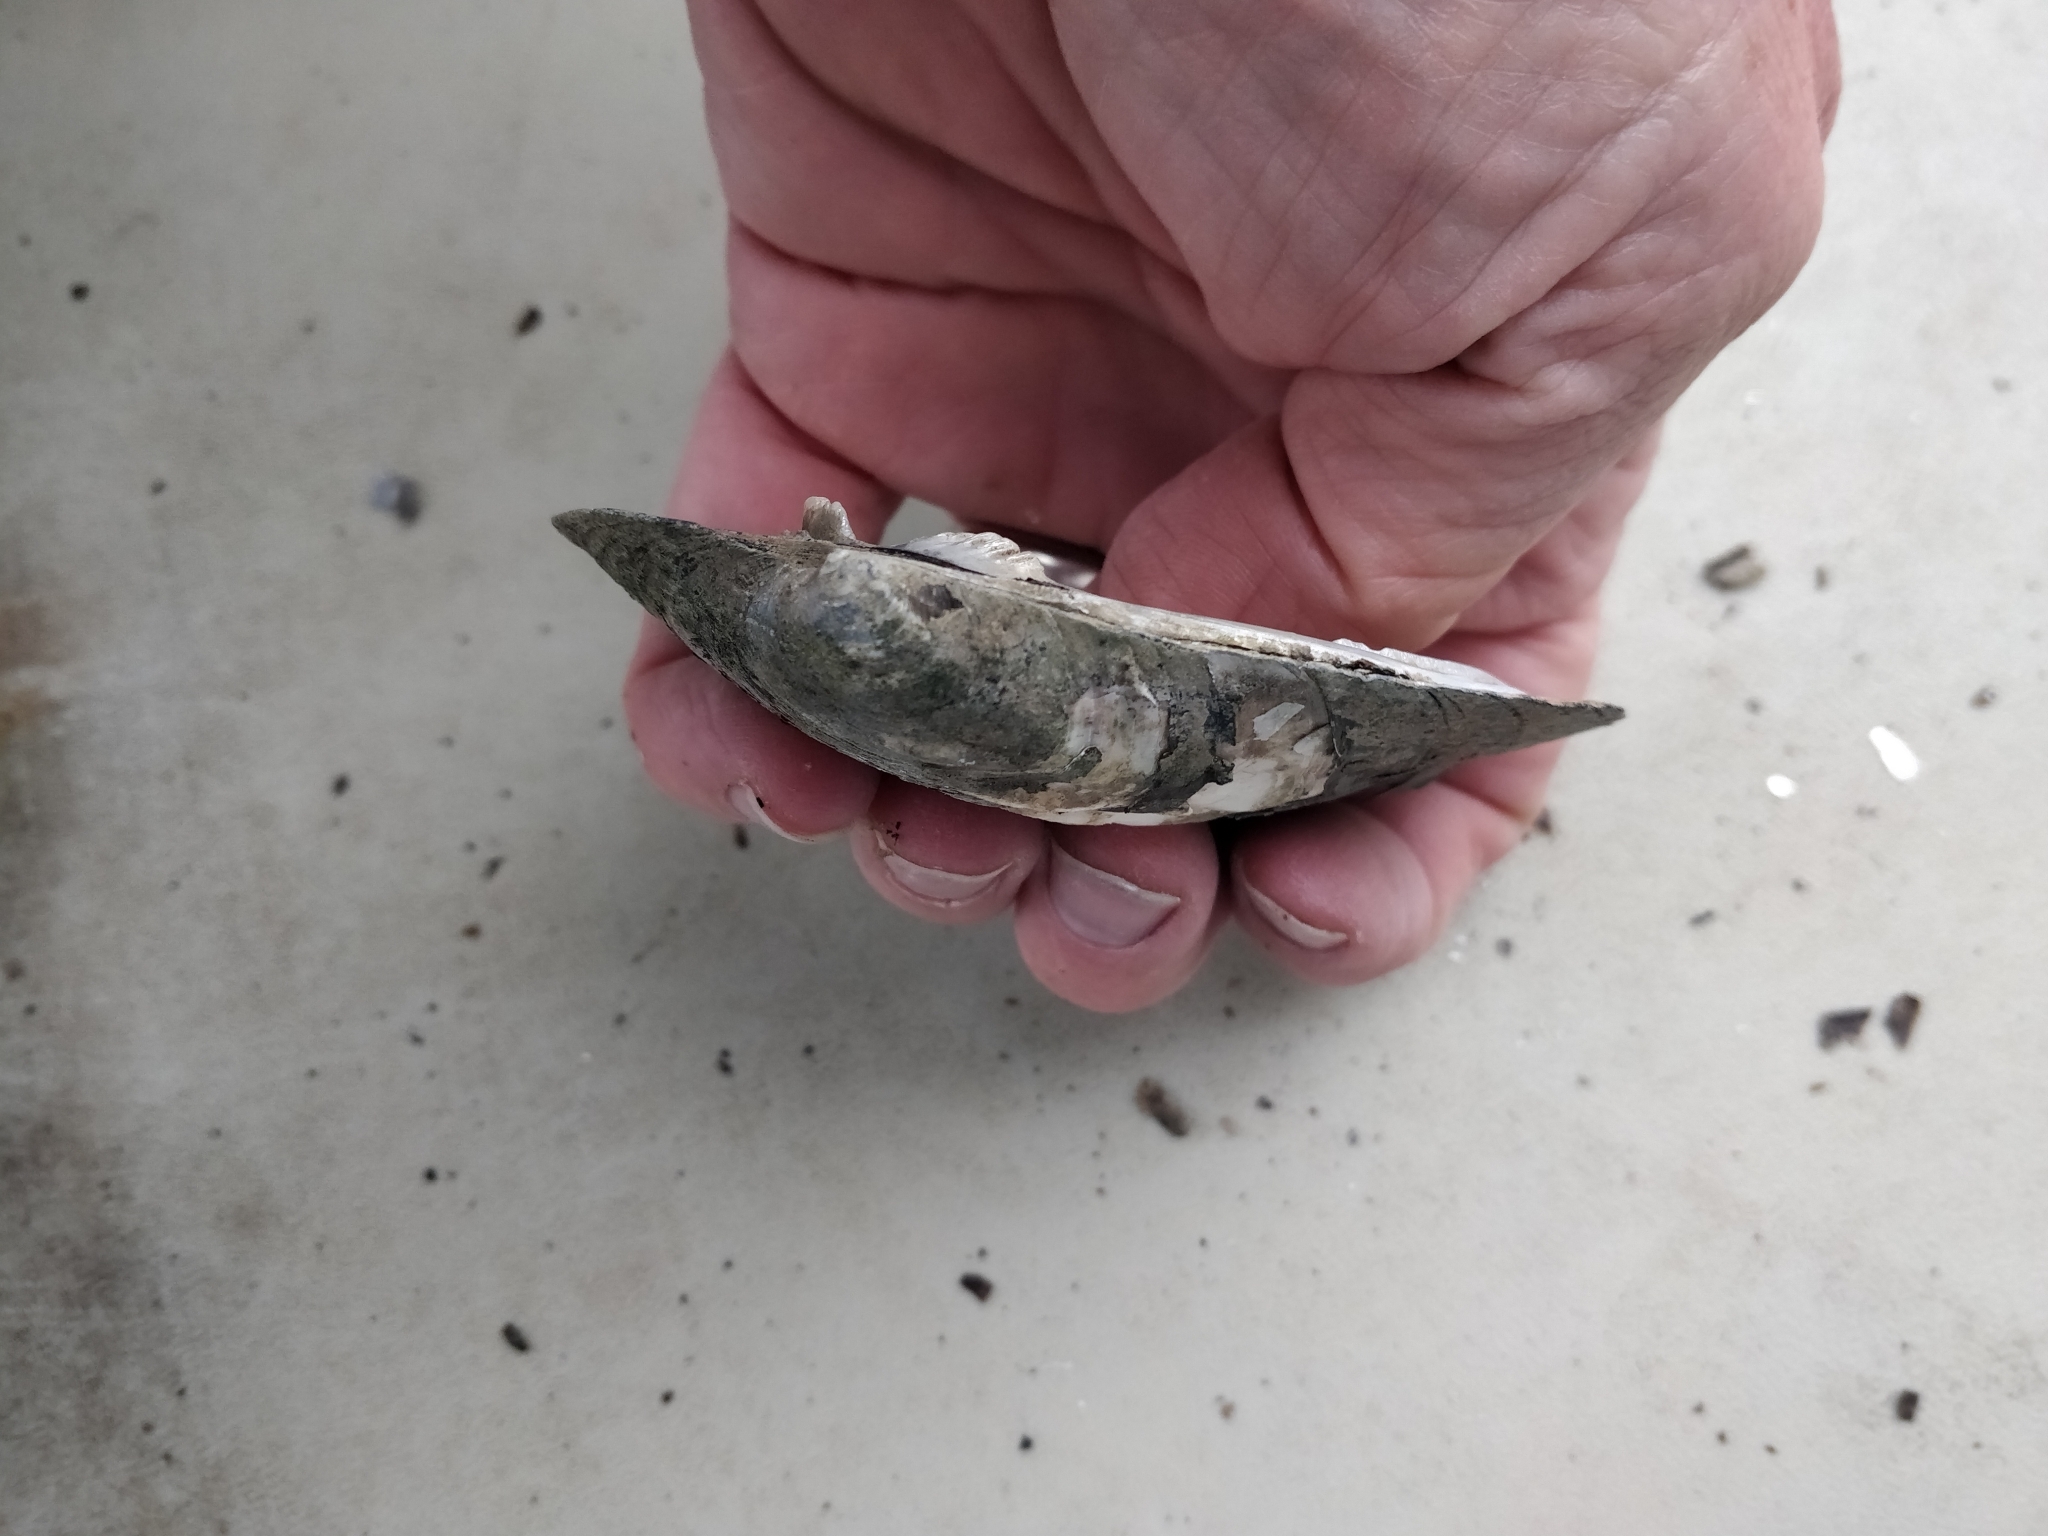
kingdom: Animalia
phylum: Mollusca
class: Bivalvia
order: Unionida
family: Unionidae
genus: Amblema
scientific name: Amblema plicata
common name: Threeridge
